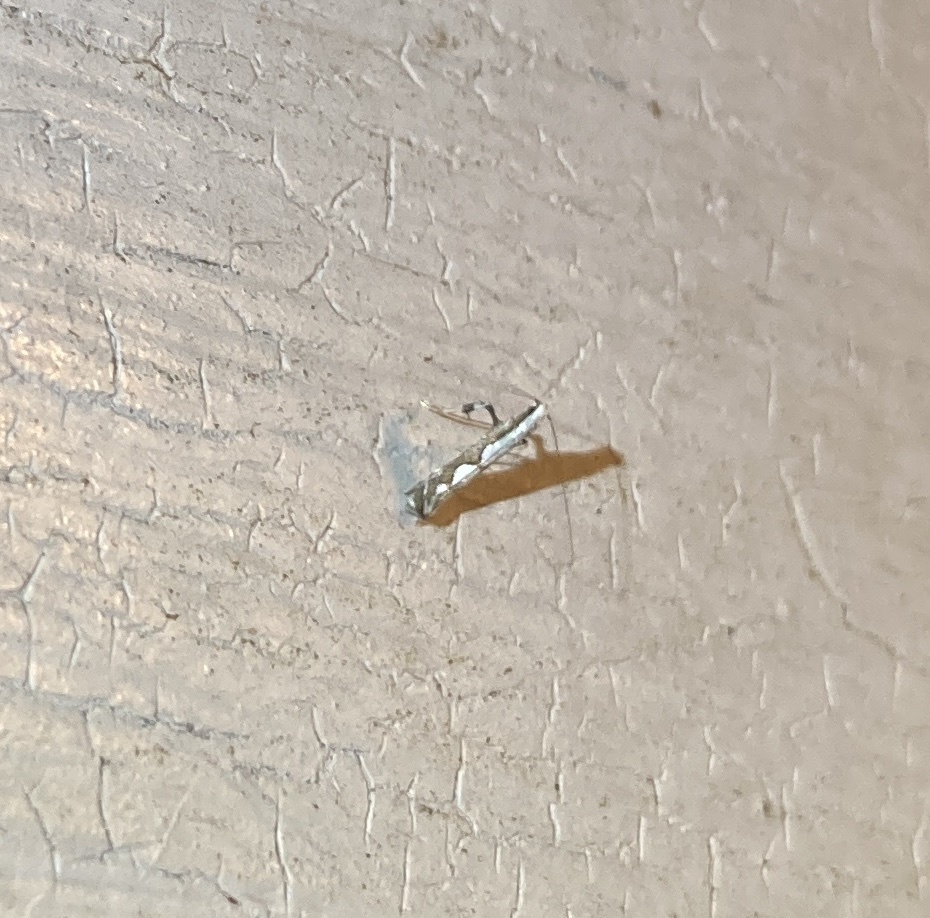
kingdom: Animalia
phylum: Arthropoda
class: Insecta
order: Lepidoptera
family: Gracillariidae
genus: Dialectica
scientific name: Dialectica scalariella
